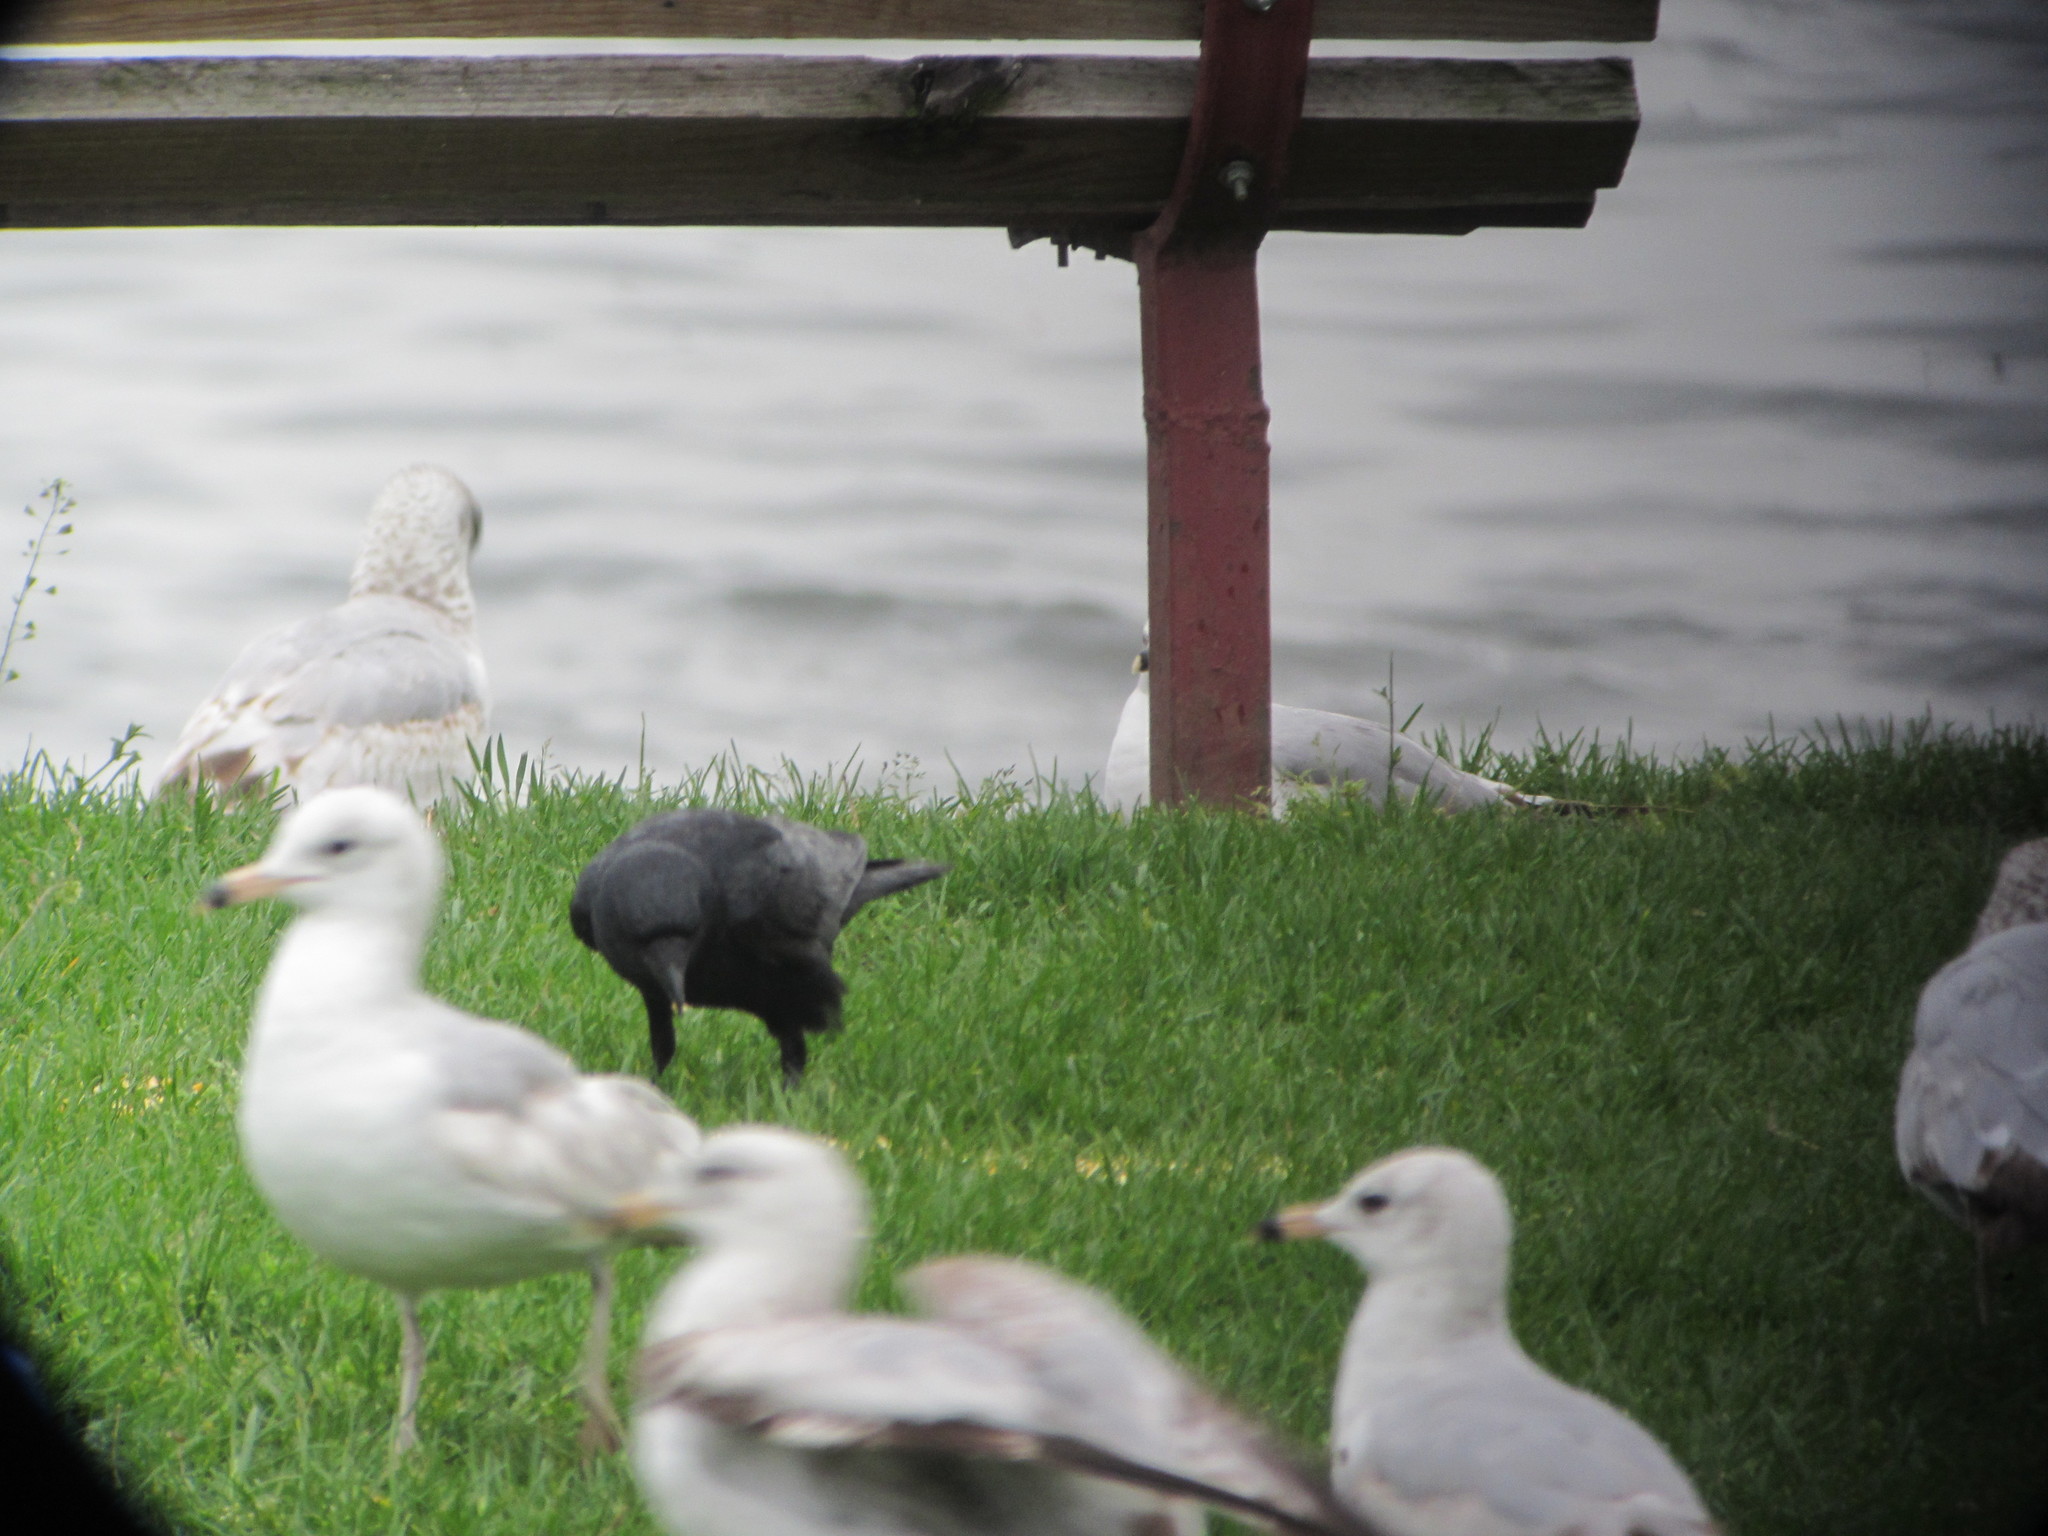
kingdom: Animalia
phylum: Chordata
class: Aves
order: Passeriformes
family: Corvidae
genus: Corvus
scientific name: Corvus
